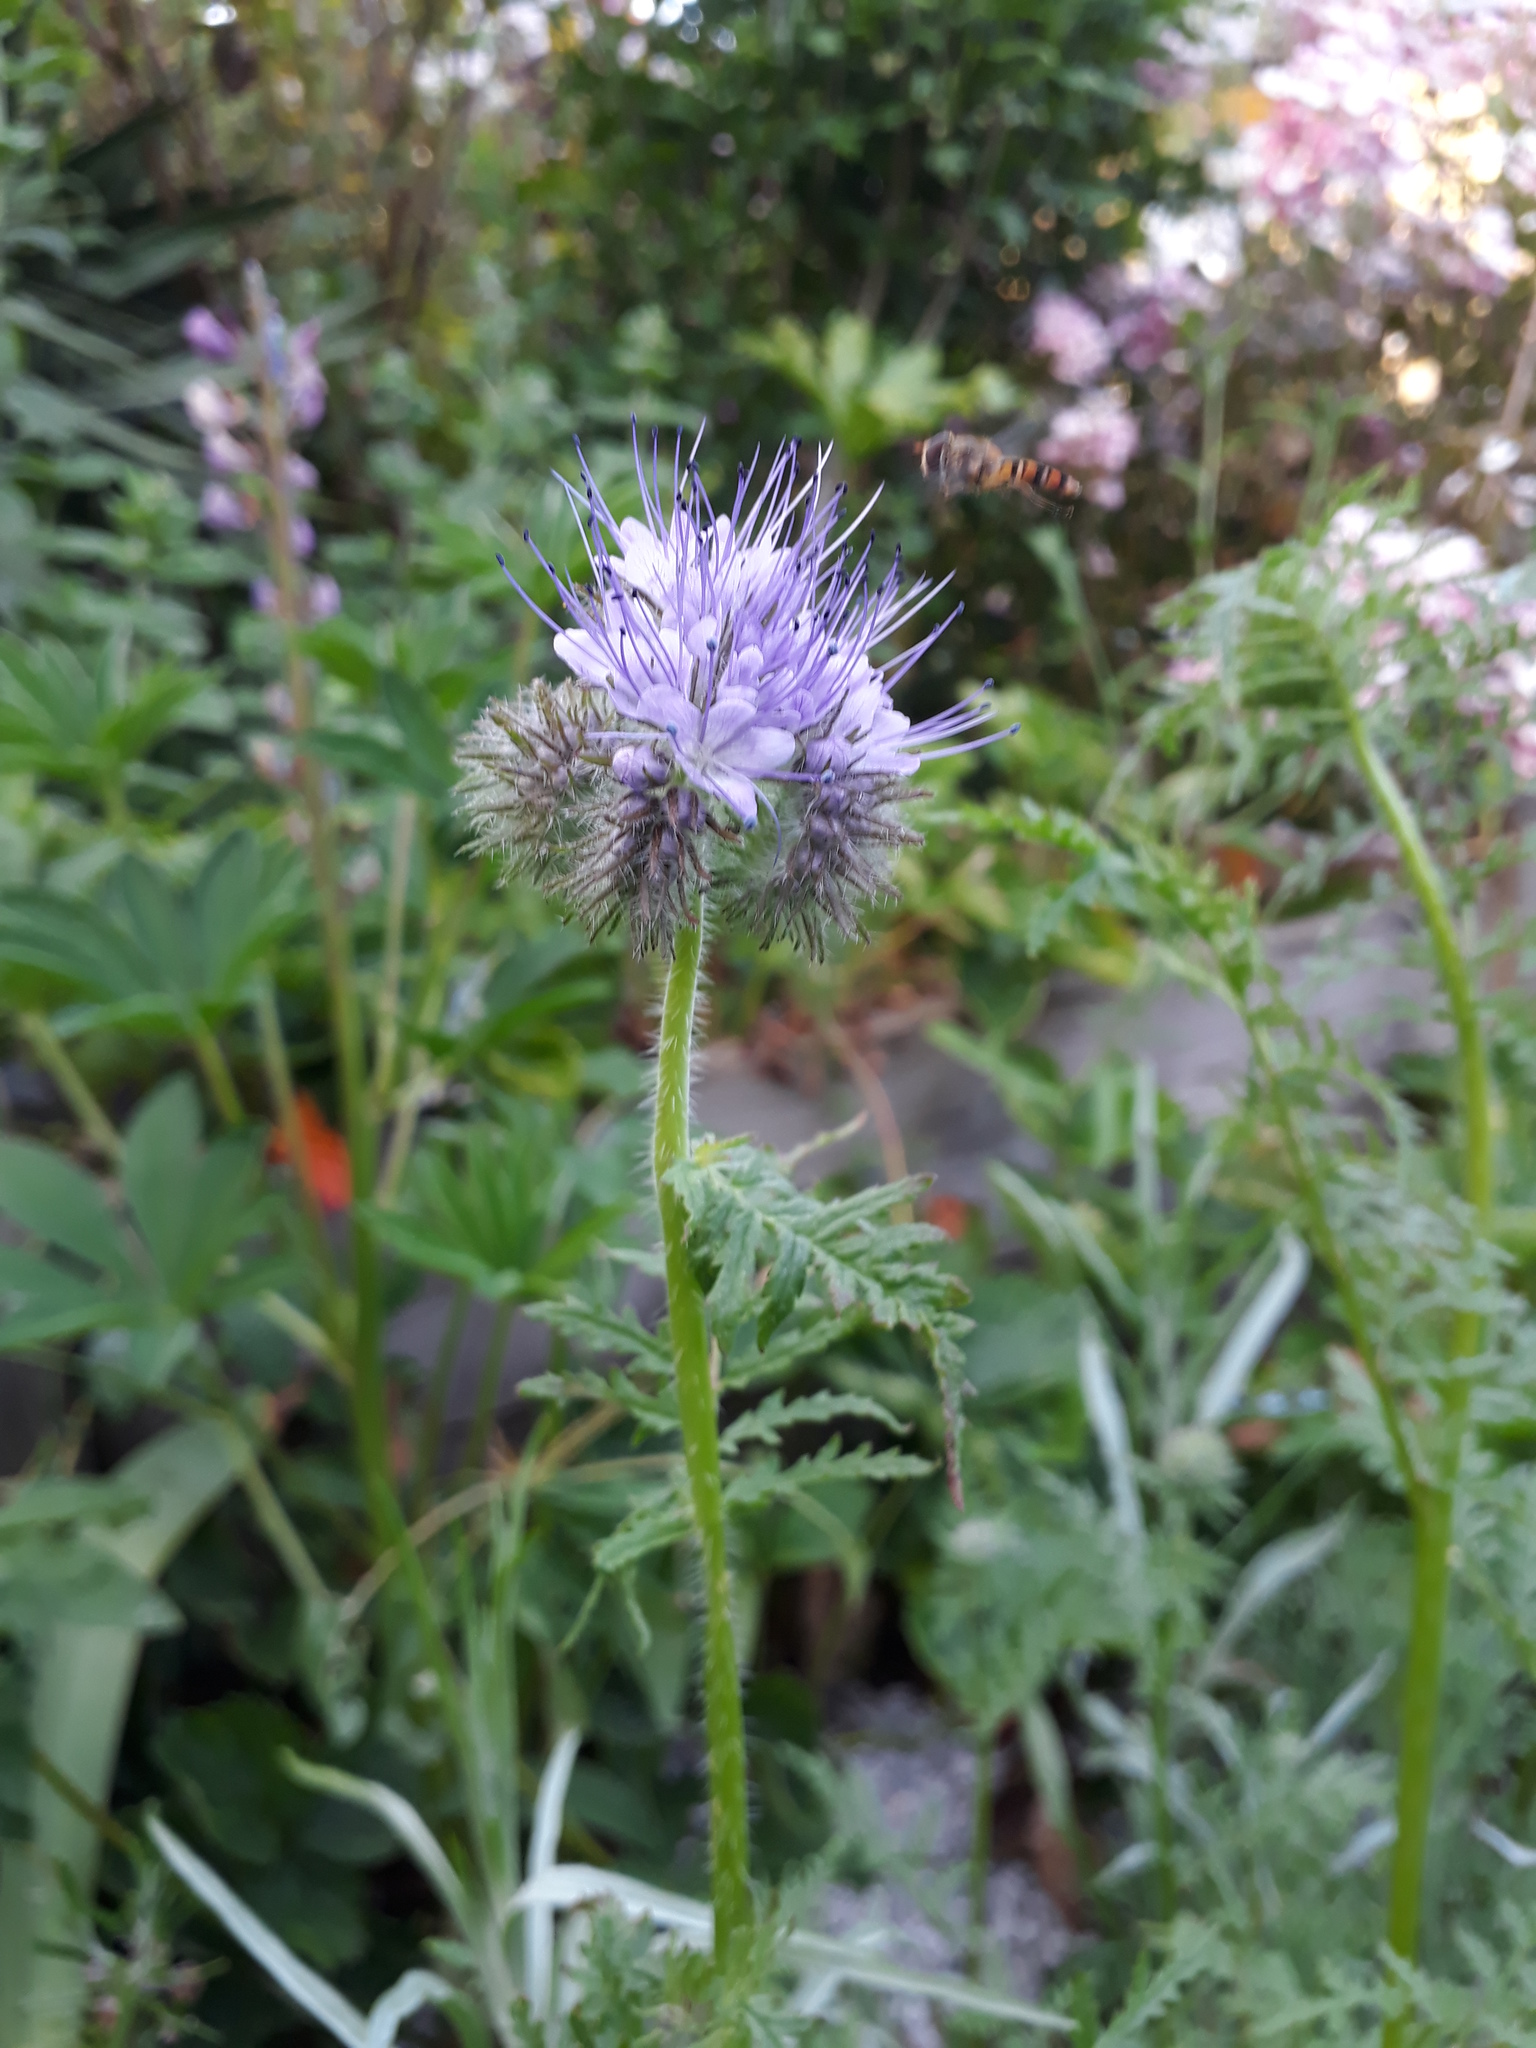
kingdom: Plantae
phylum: Tracheophyta
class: Magnoliopsida
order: Boraginales
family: Hydrophyllaceae
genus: Phacelia
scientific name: Phacelia tanacetifolia
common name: Phacelia
